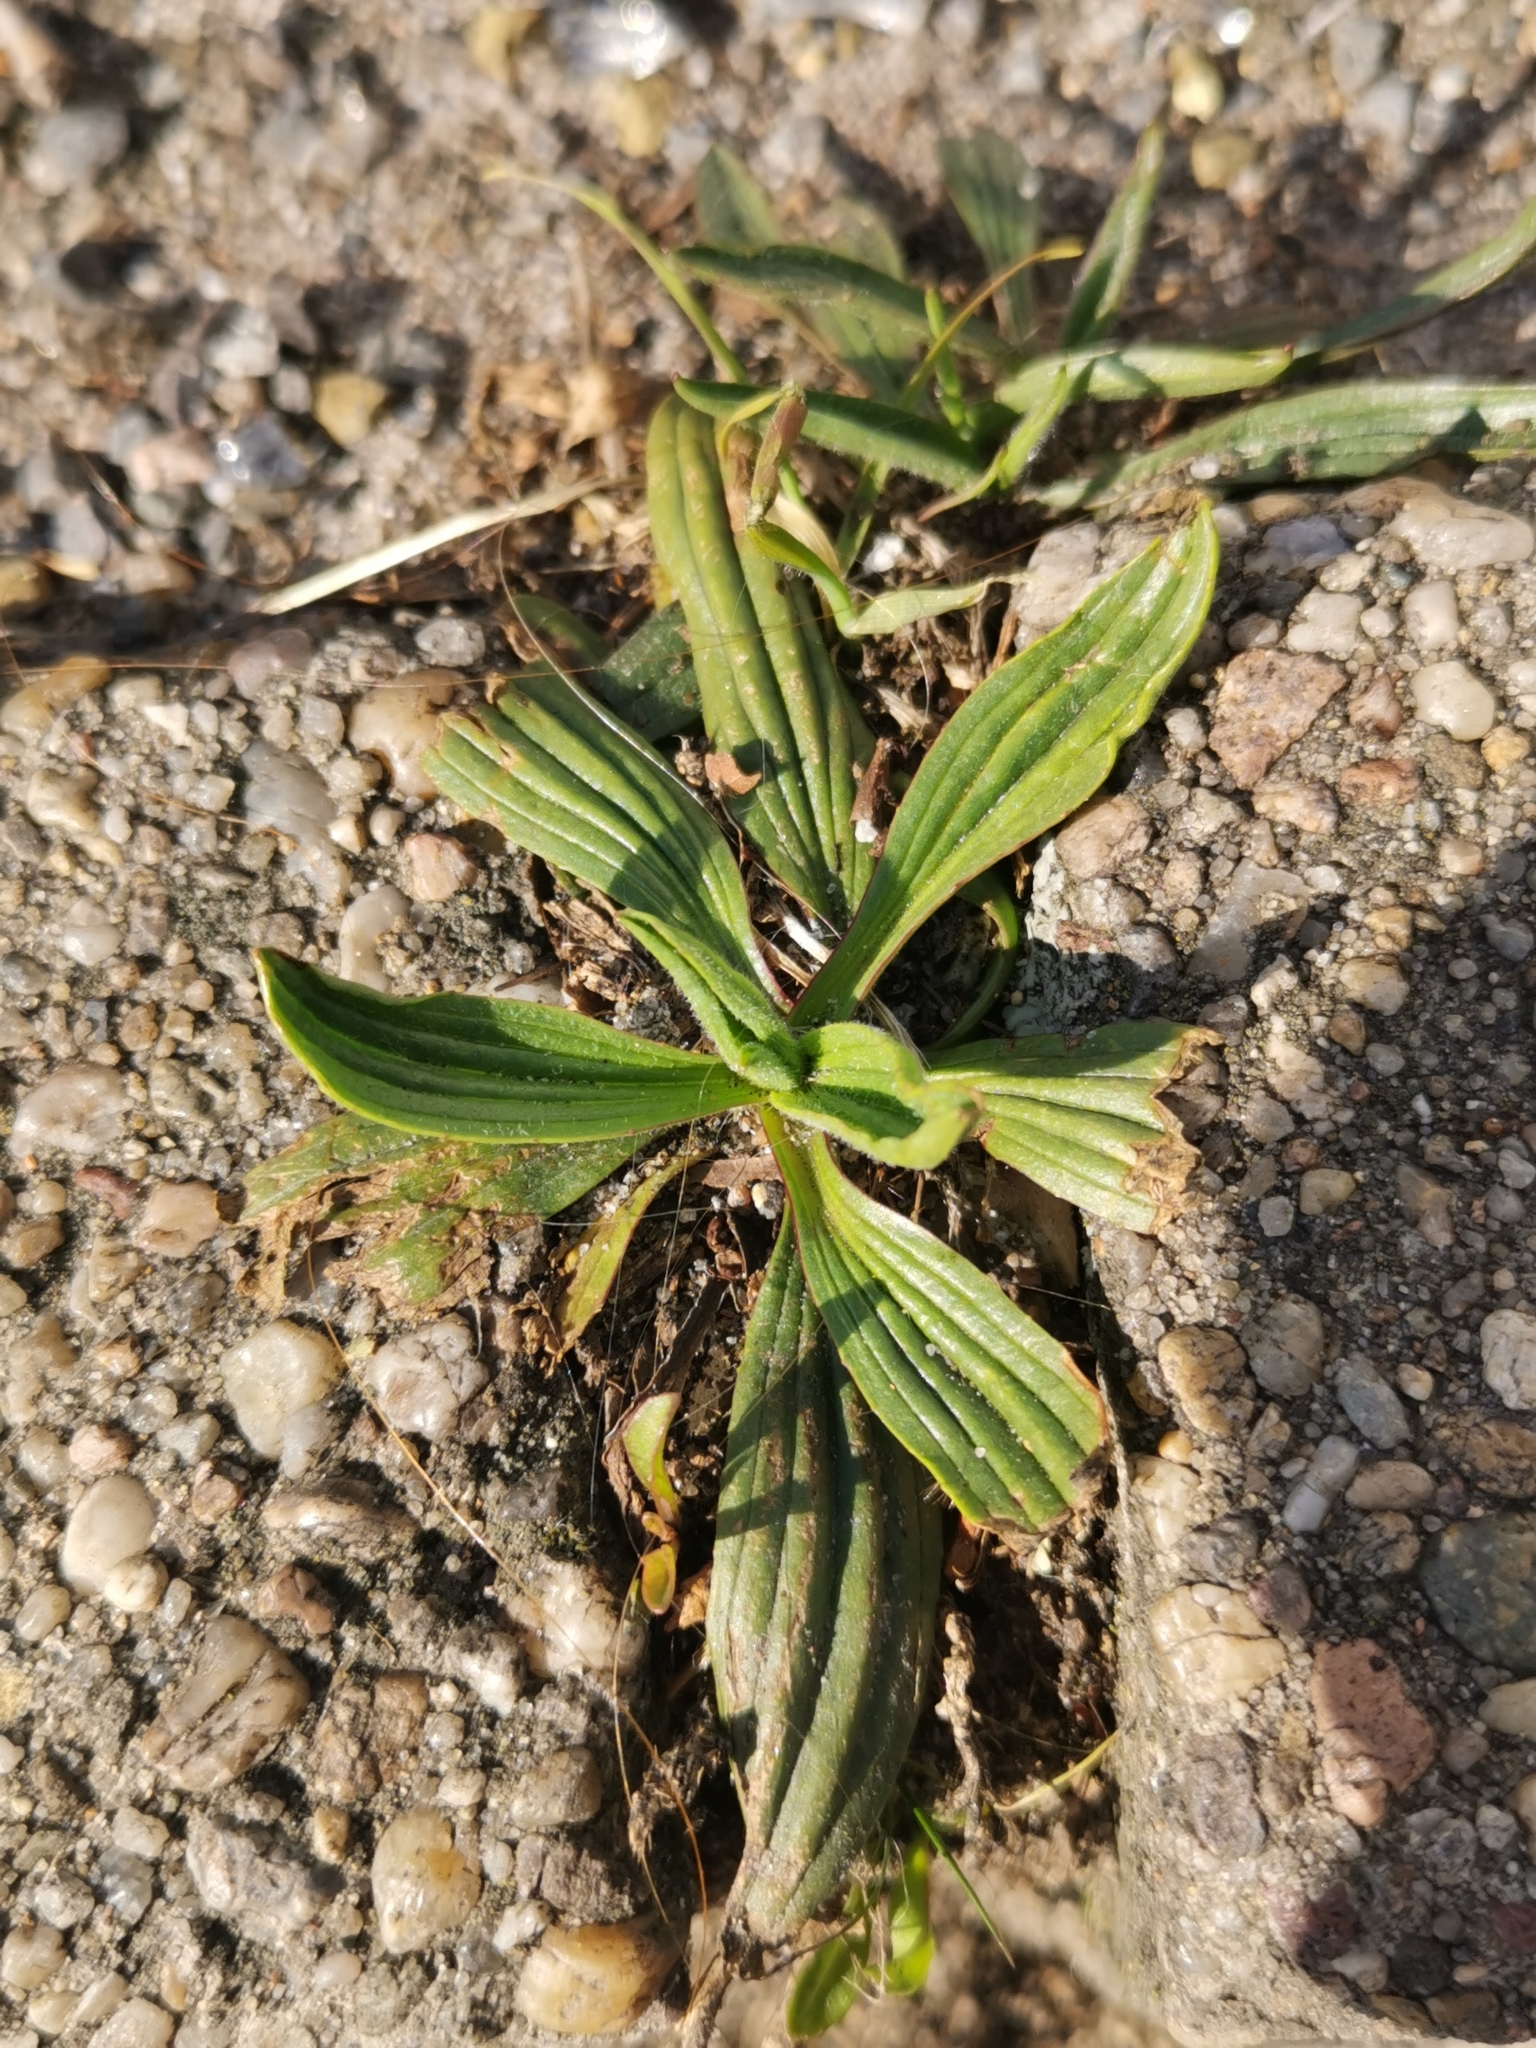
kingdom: Plantae
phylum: Tracheophyta
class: Magnoliopsida
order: Lamiales
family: Plantaginaceae
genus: Plantago
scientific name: Plantago lanceolata
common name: Ribwort plantain
